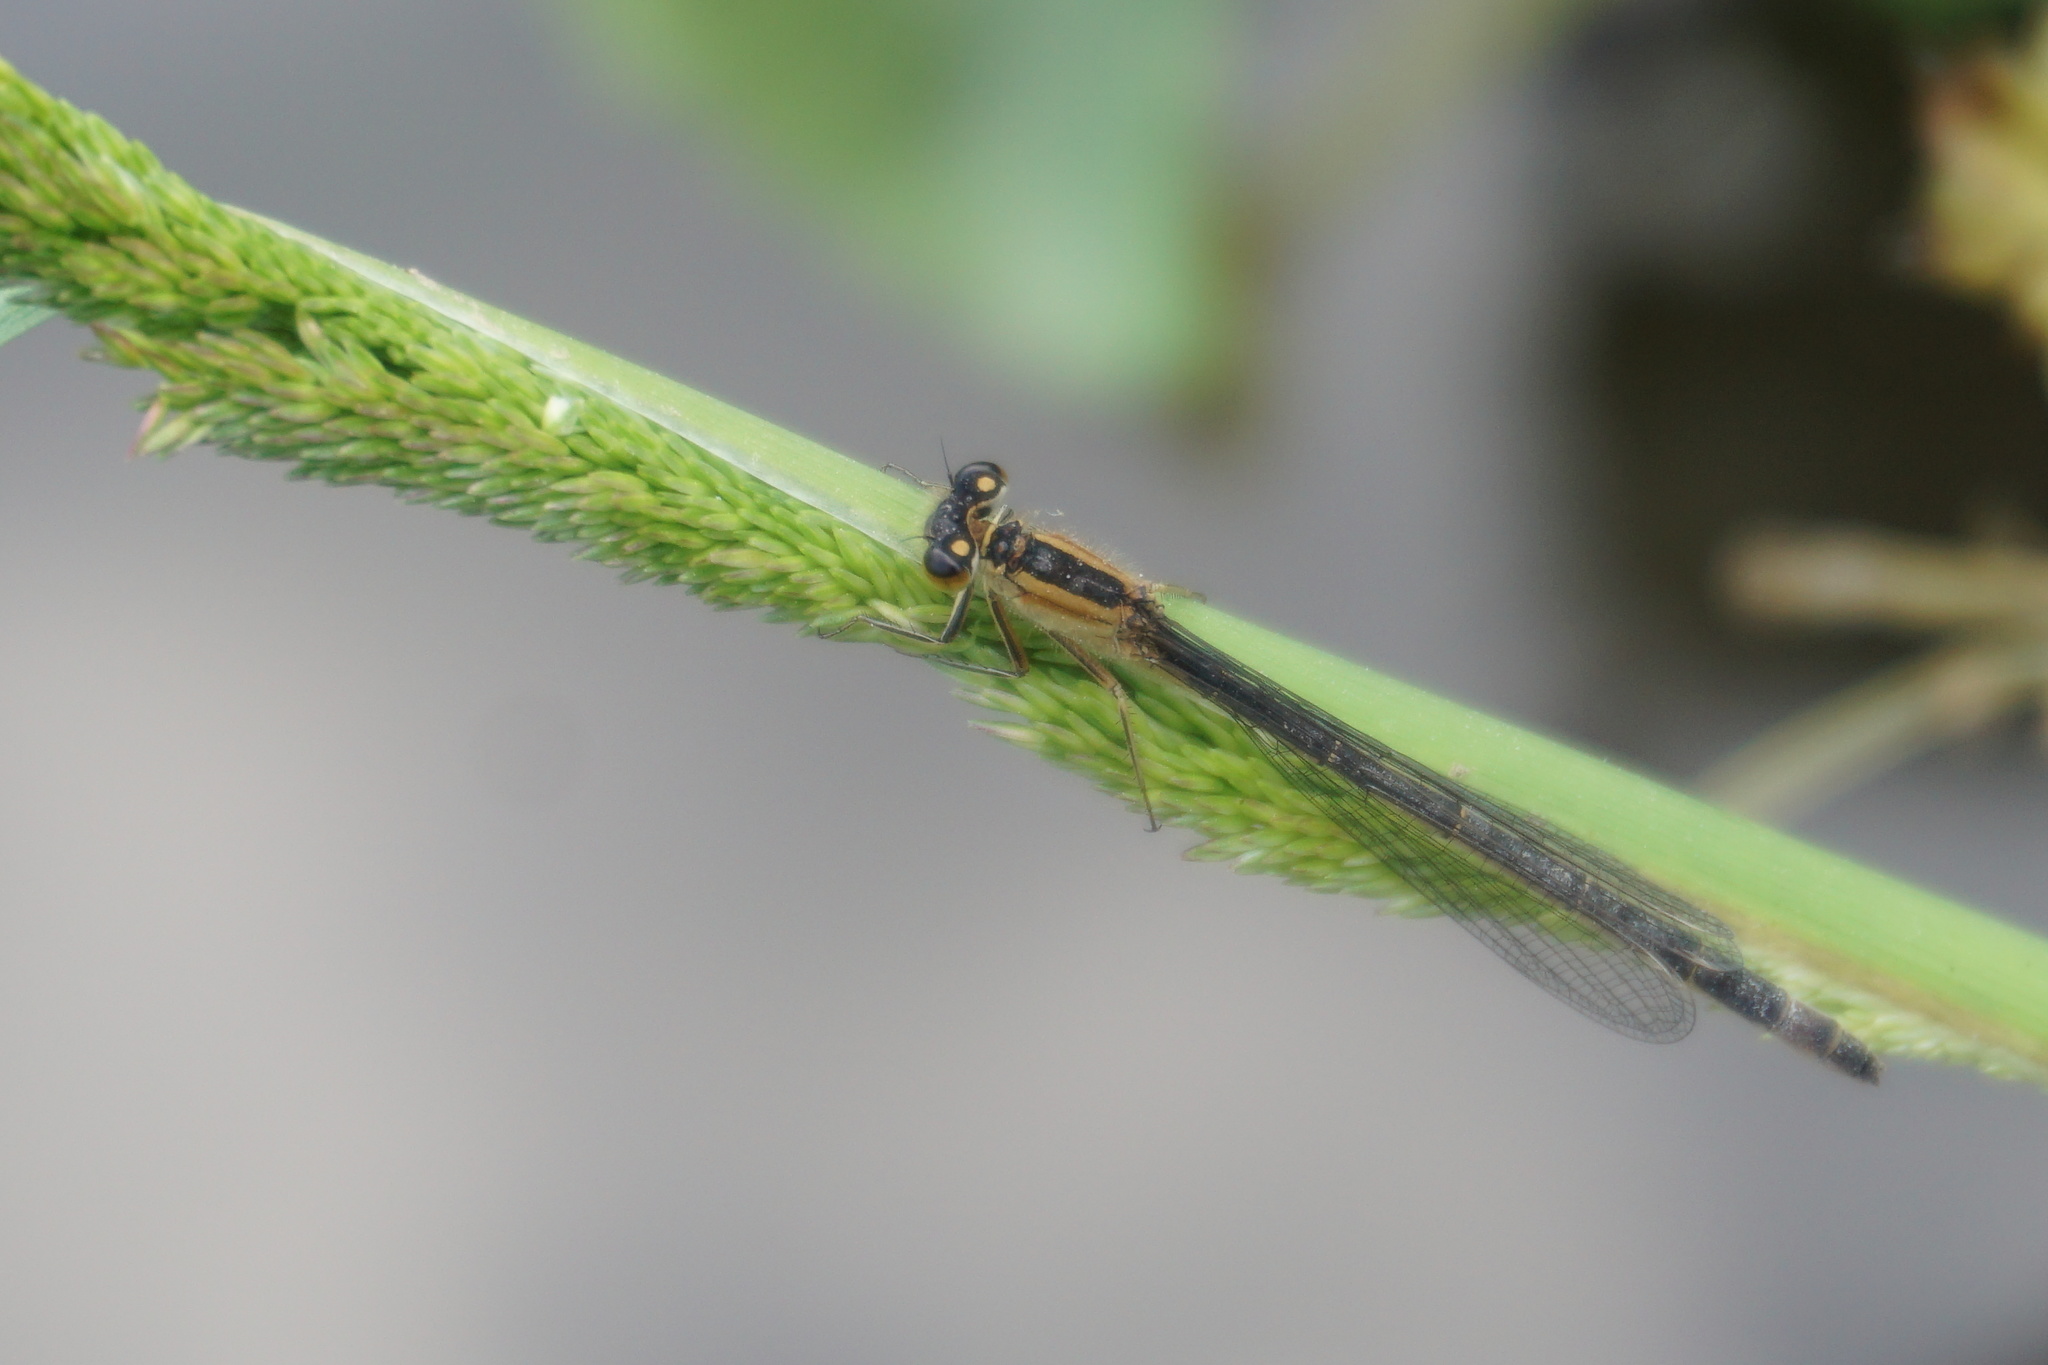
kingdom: Animalia
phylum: Arthropoda
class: Insecta
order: Odonata
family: Coenagrionidae
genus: Ischnura
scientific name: Ischnura elegans
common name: Blue-tailed damselfly
